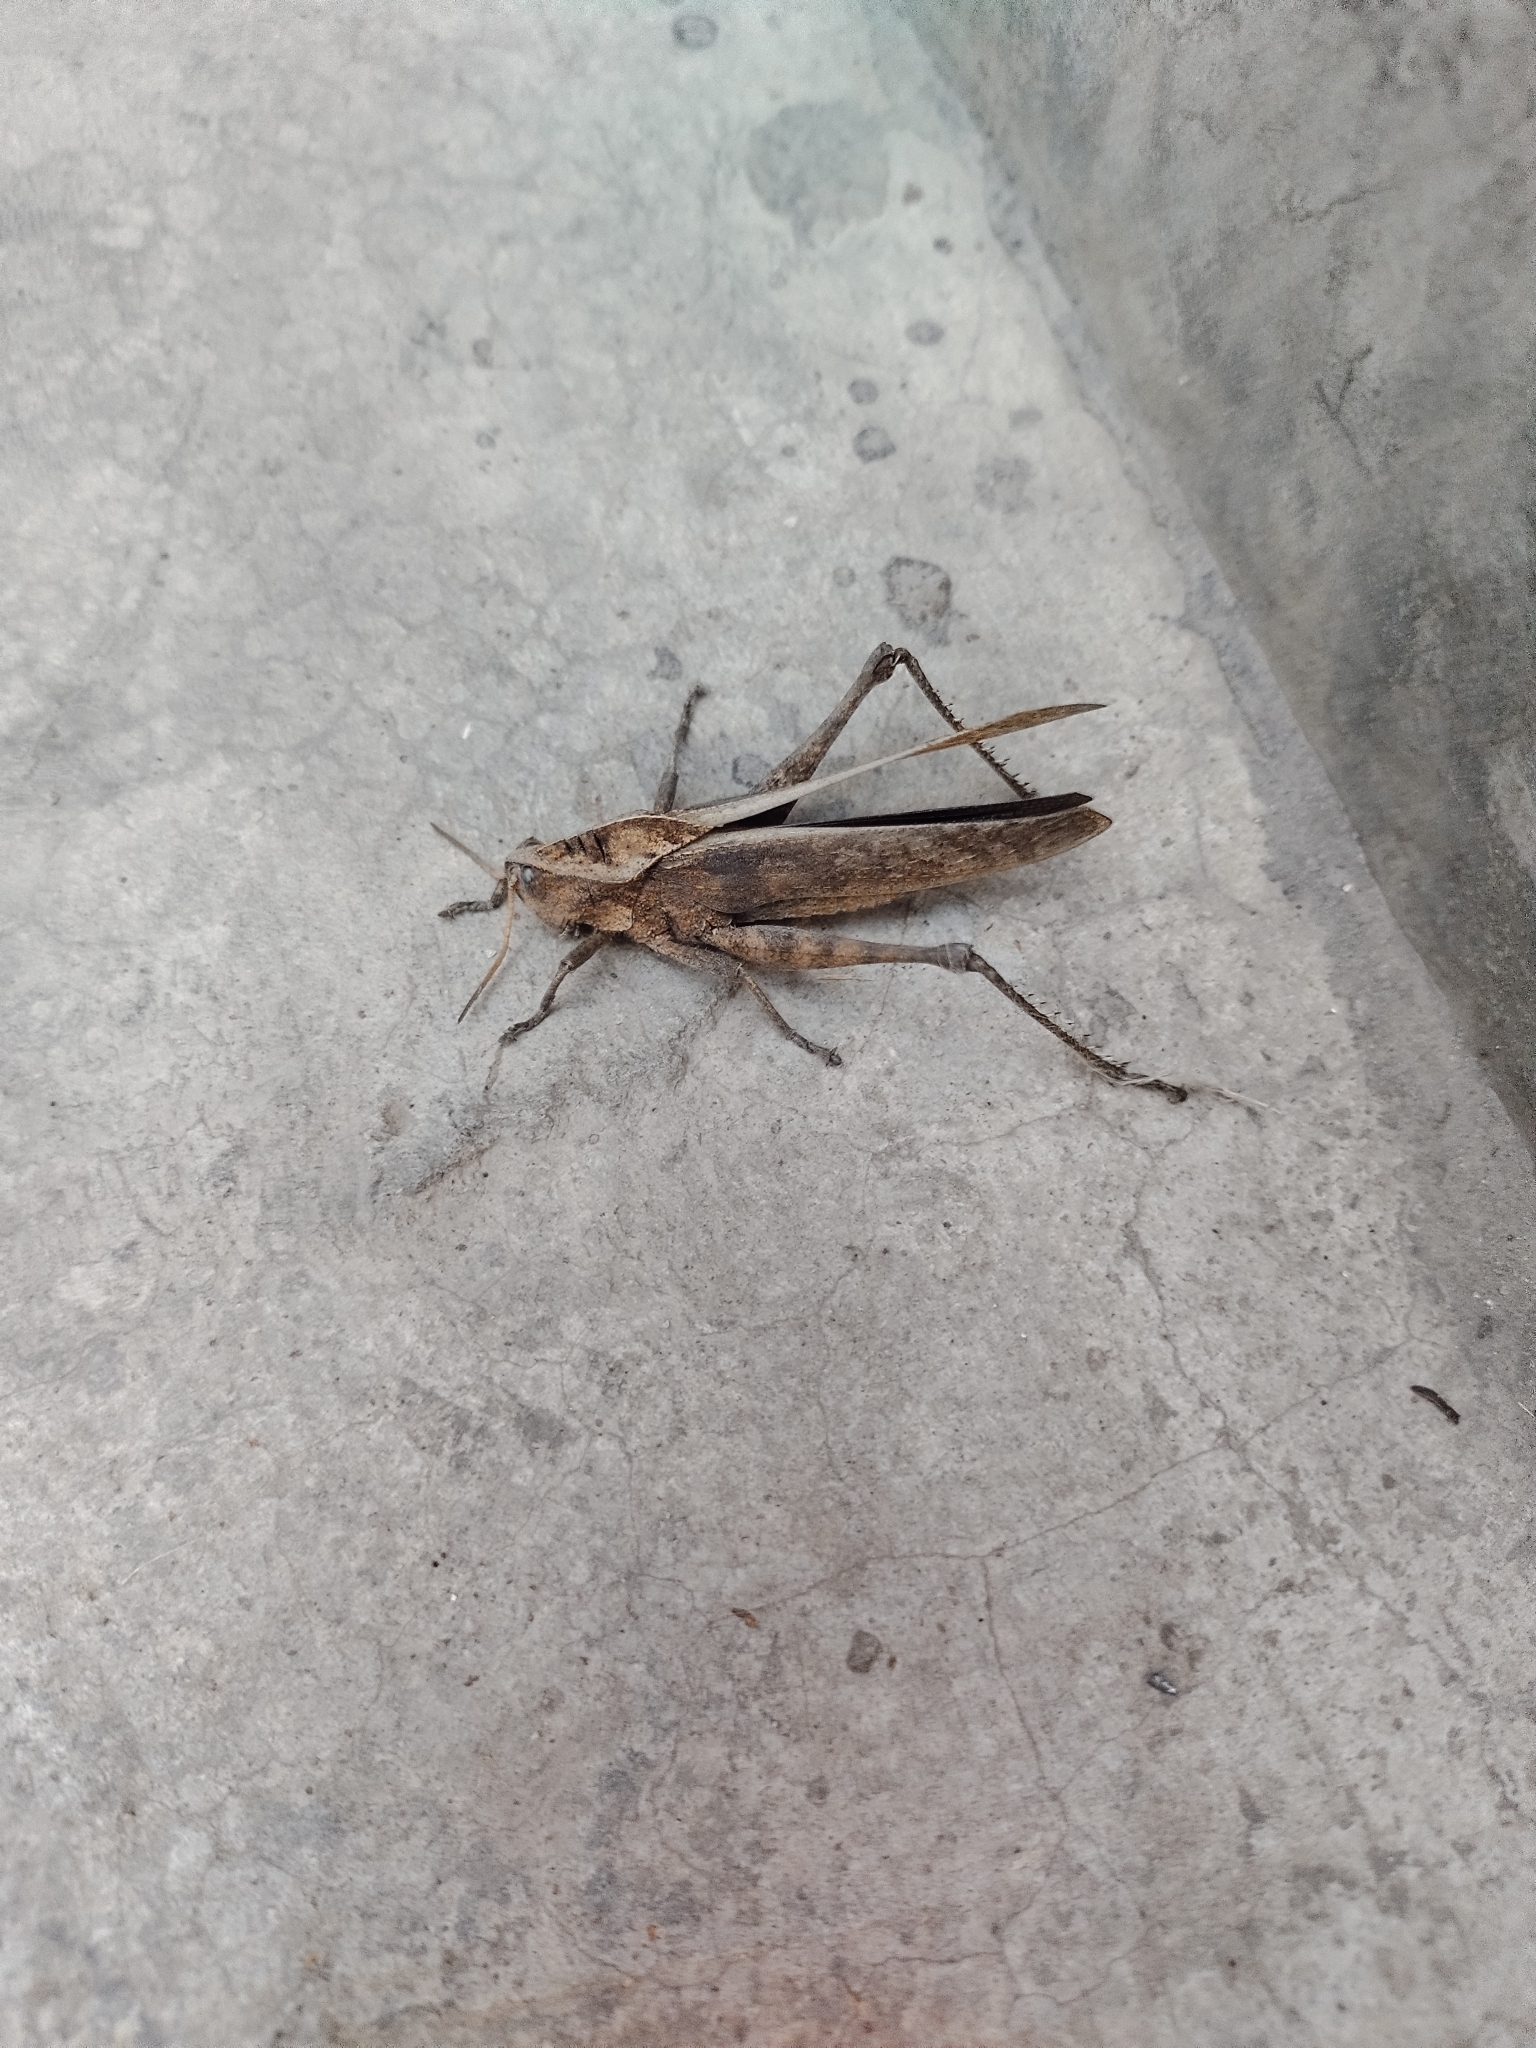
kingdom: Animalia
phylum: Arthropoda
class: Insecta
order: Orthoptera
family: Romaleidae
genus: Xyleus
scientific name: Xyleus discoideus
